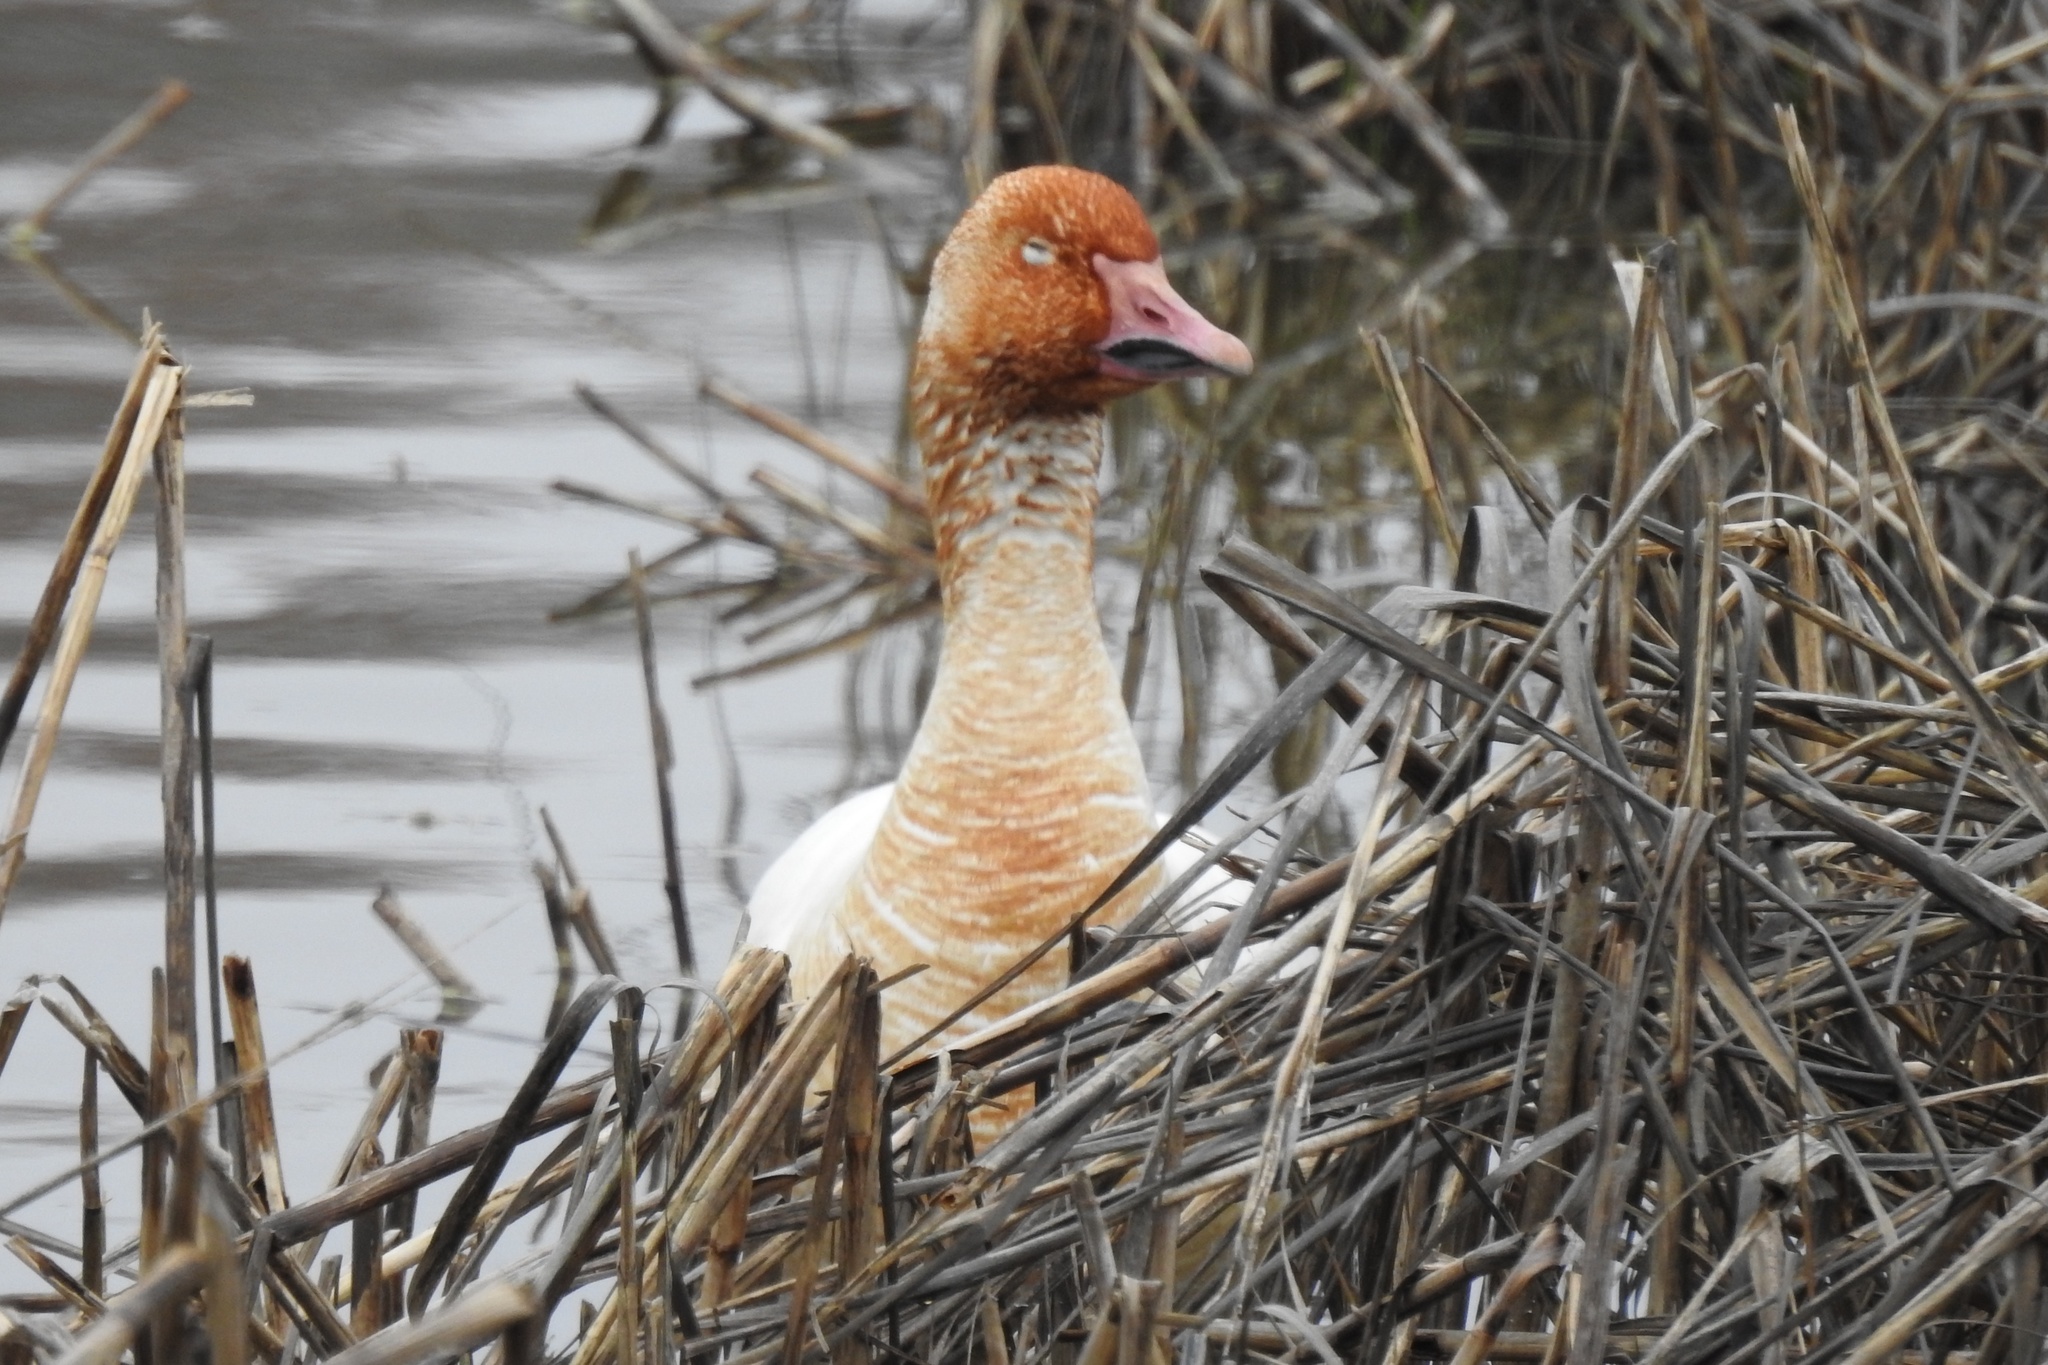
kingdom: Animalia
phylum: Chordata
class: Aves
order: Anseriformes
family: Anatidae
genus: Anser
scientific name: Anser caerulescens
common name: Snow goose
